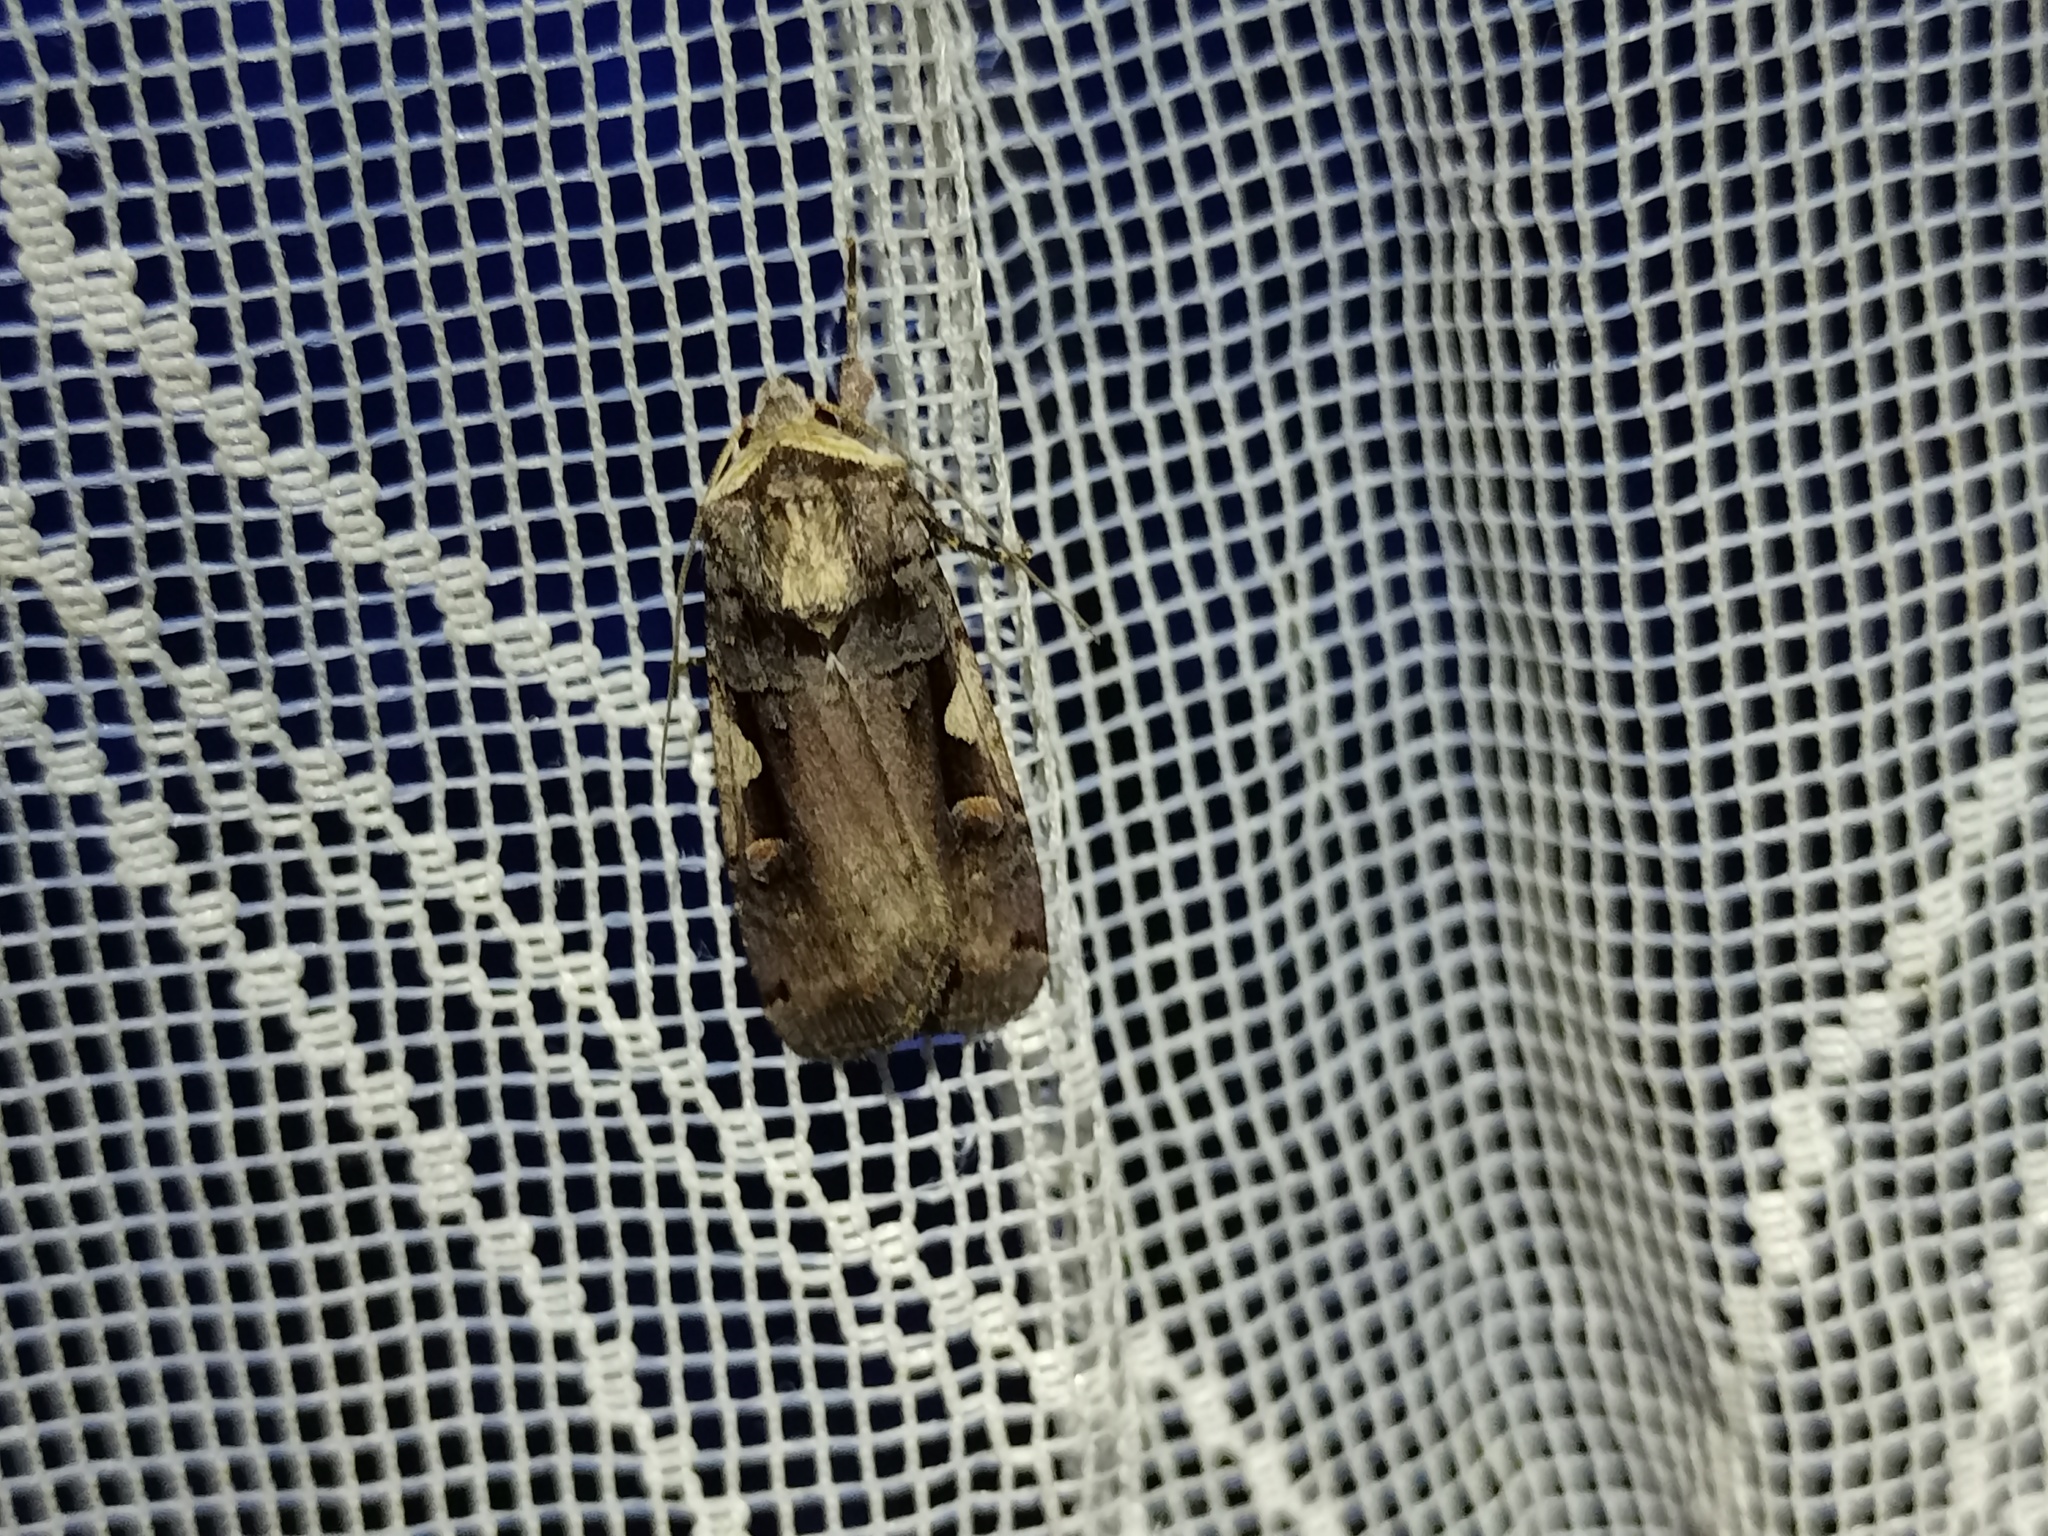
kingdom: Animalia
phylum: Arthropoda
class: Insecta
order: Lepidoptera
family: Noctuidae
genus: Xestia
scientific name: Xestia c-nigrum
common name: Setaceous hebrew character
